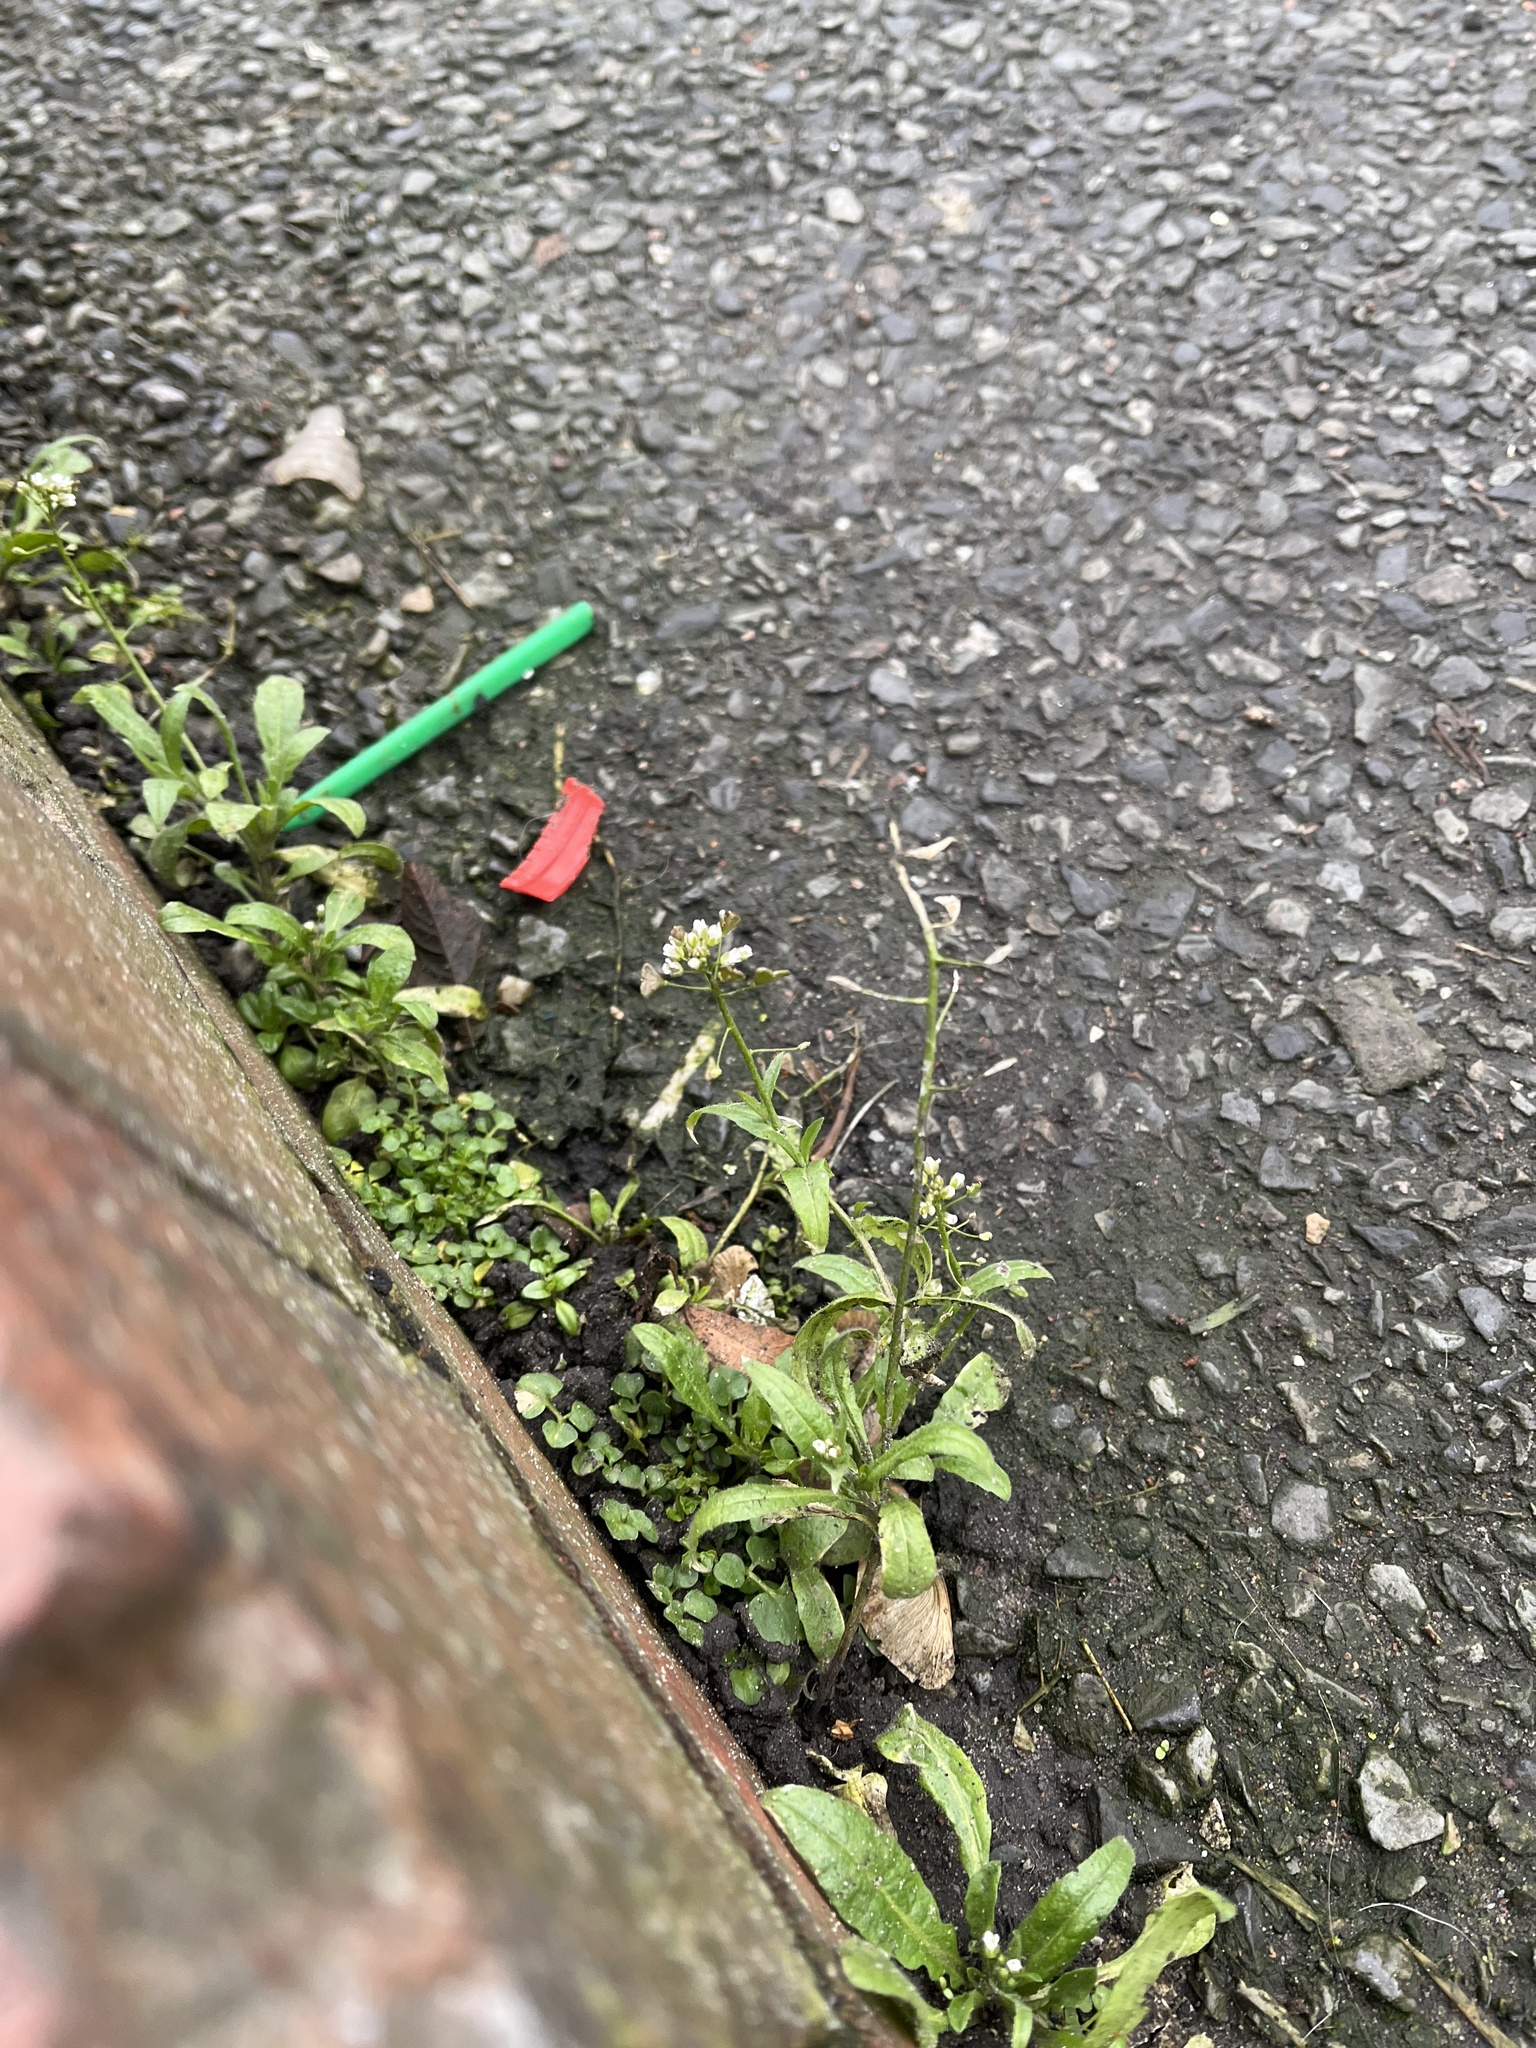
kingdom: Plantae
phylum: Tracheophyta
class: Magnoliopsida
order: Brassicales
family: Brassicaceae
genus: Capsella
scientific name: Capsella bursa-pastoris
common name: Shepherd's purse
